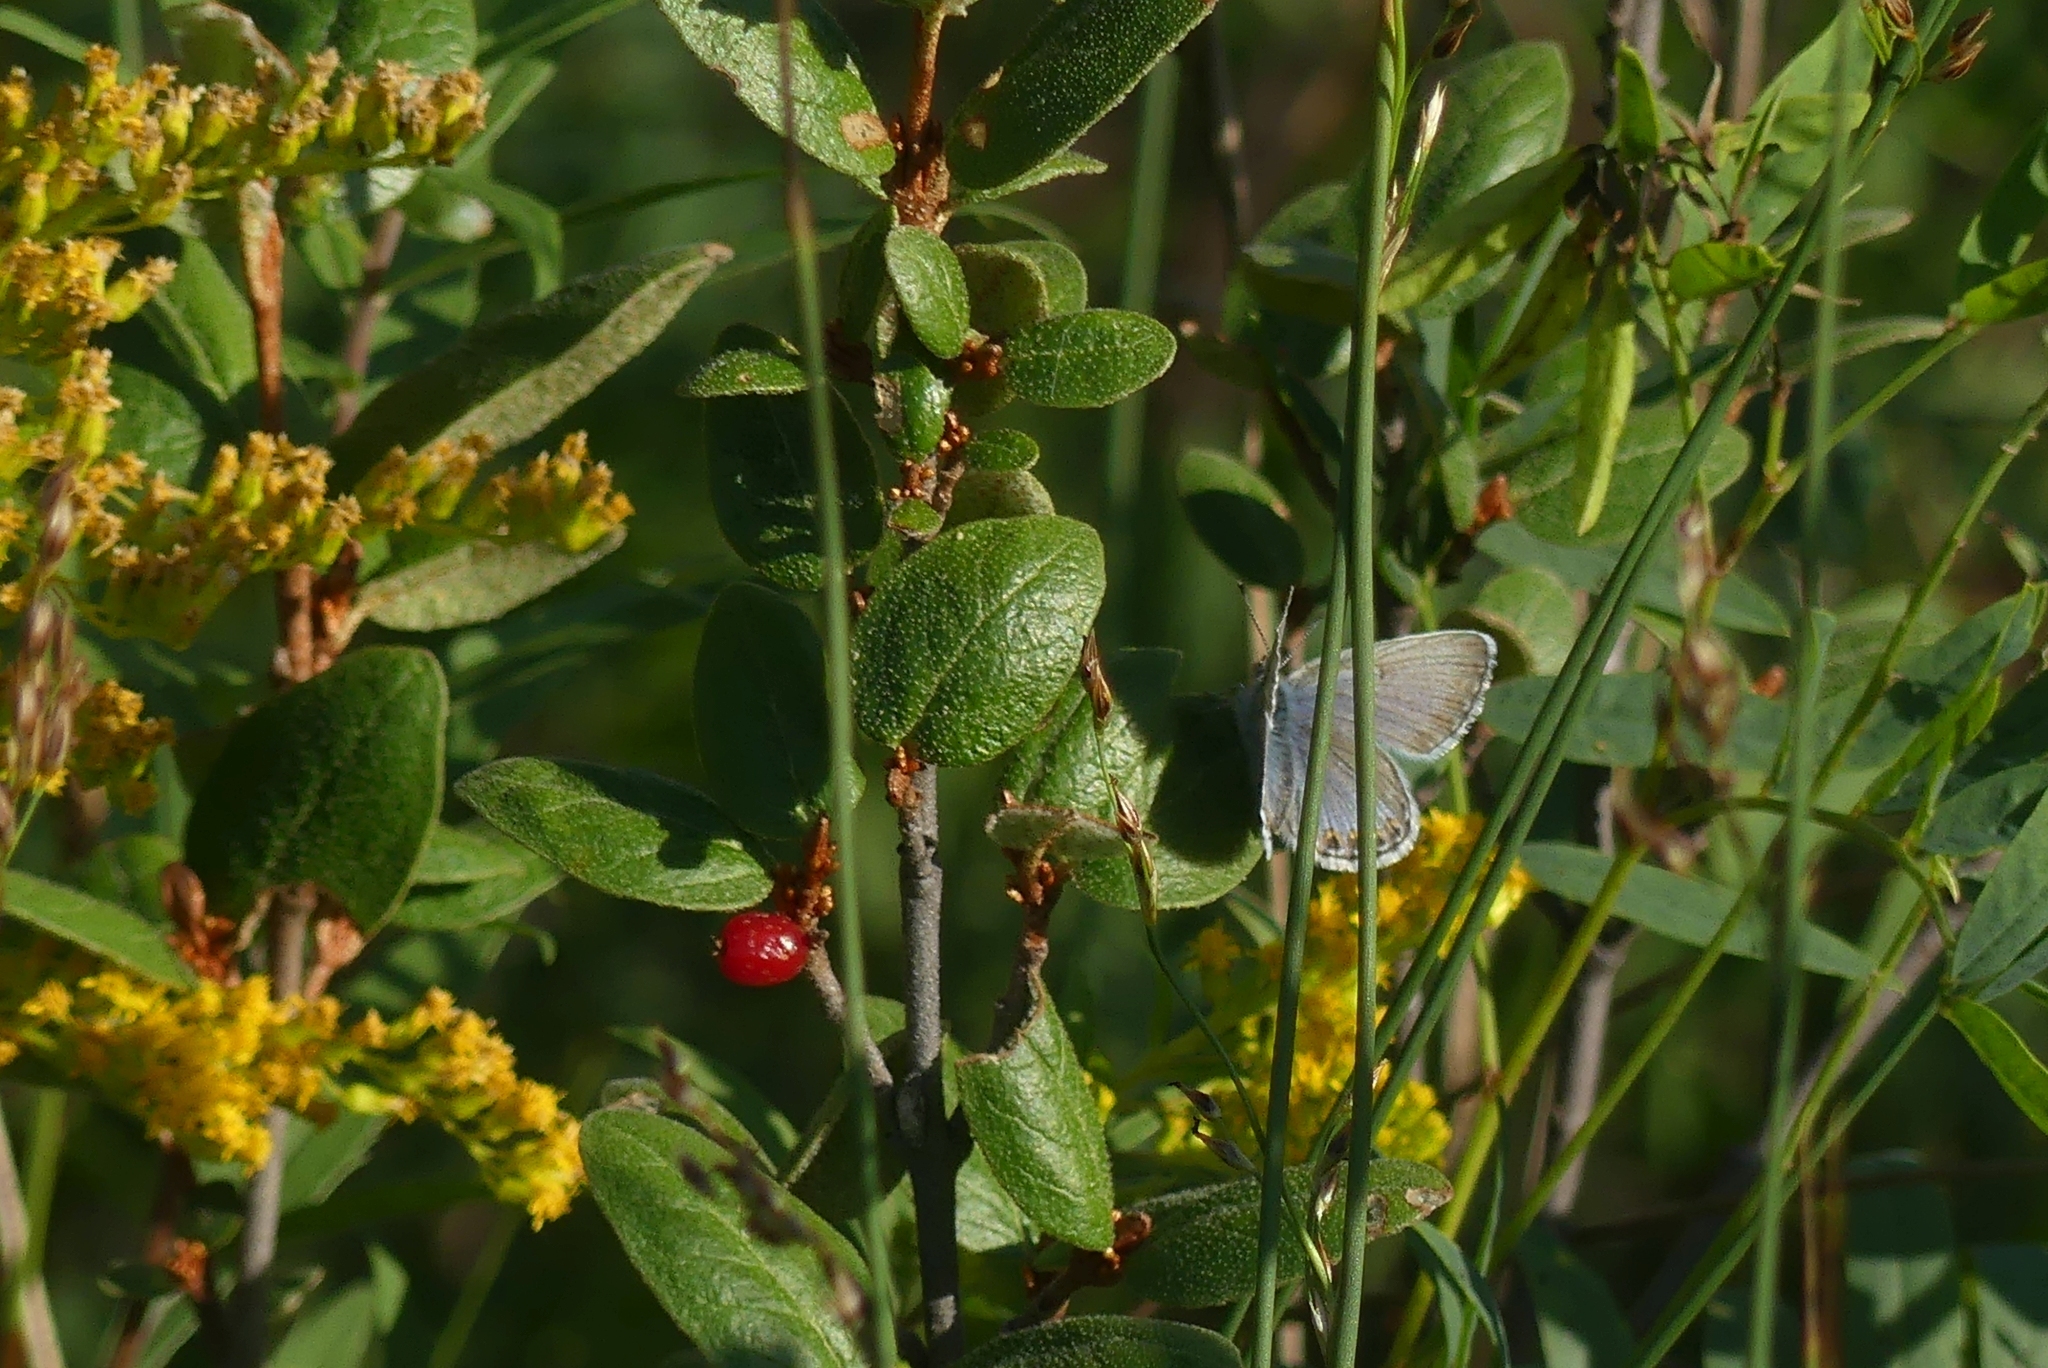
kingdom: Animalia
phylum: Arthropoda
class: Insecta
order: Lepidoptera
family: Lycaenidae
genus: Lycaeides
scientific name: Lycaeides idas
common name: Northern blue
